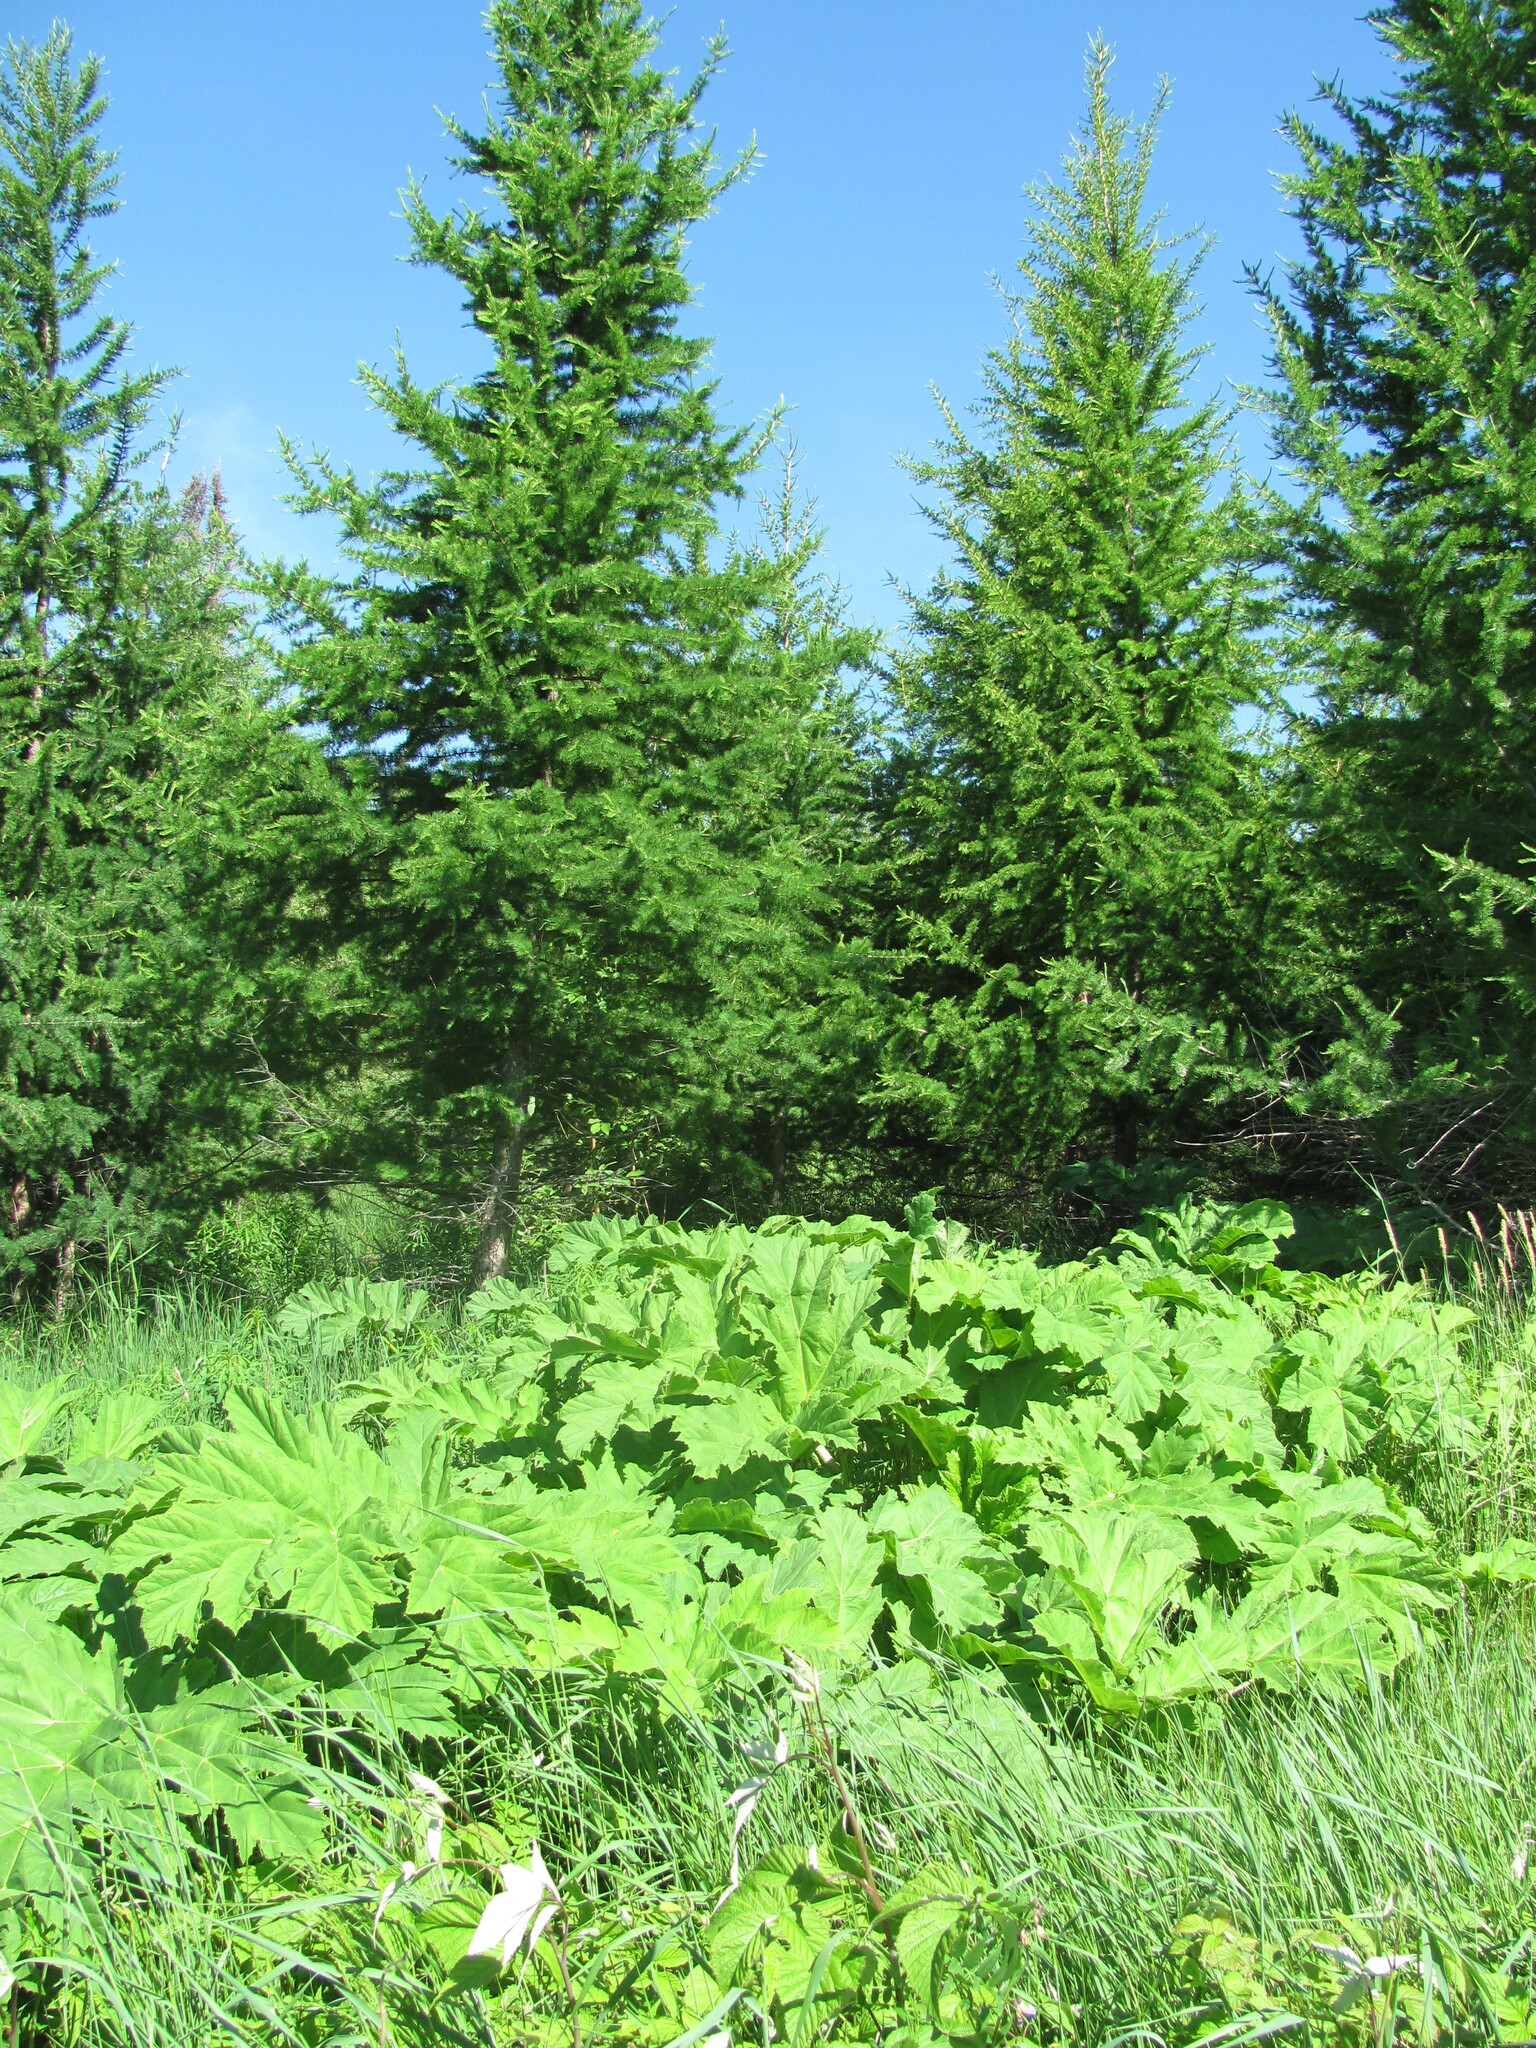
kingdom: Plantae
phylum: Tracheophyta
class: Magnoliopsida
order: Apiales
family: Apiaceae
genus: Heracleum
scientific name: Heracleum sosnowskyi
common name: Sosnowsky's hogweed
